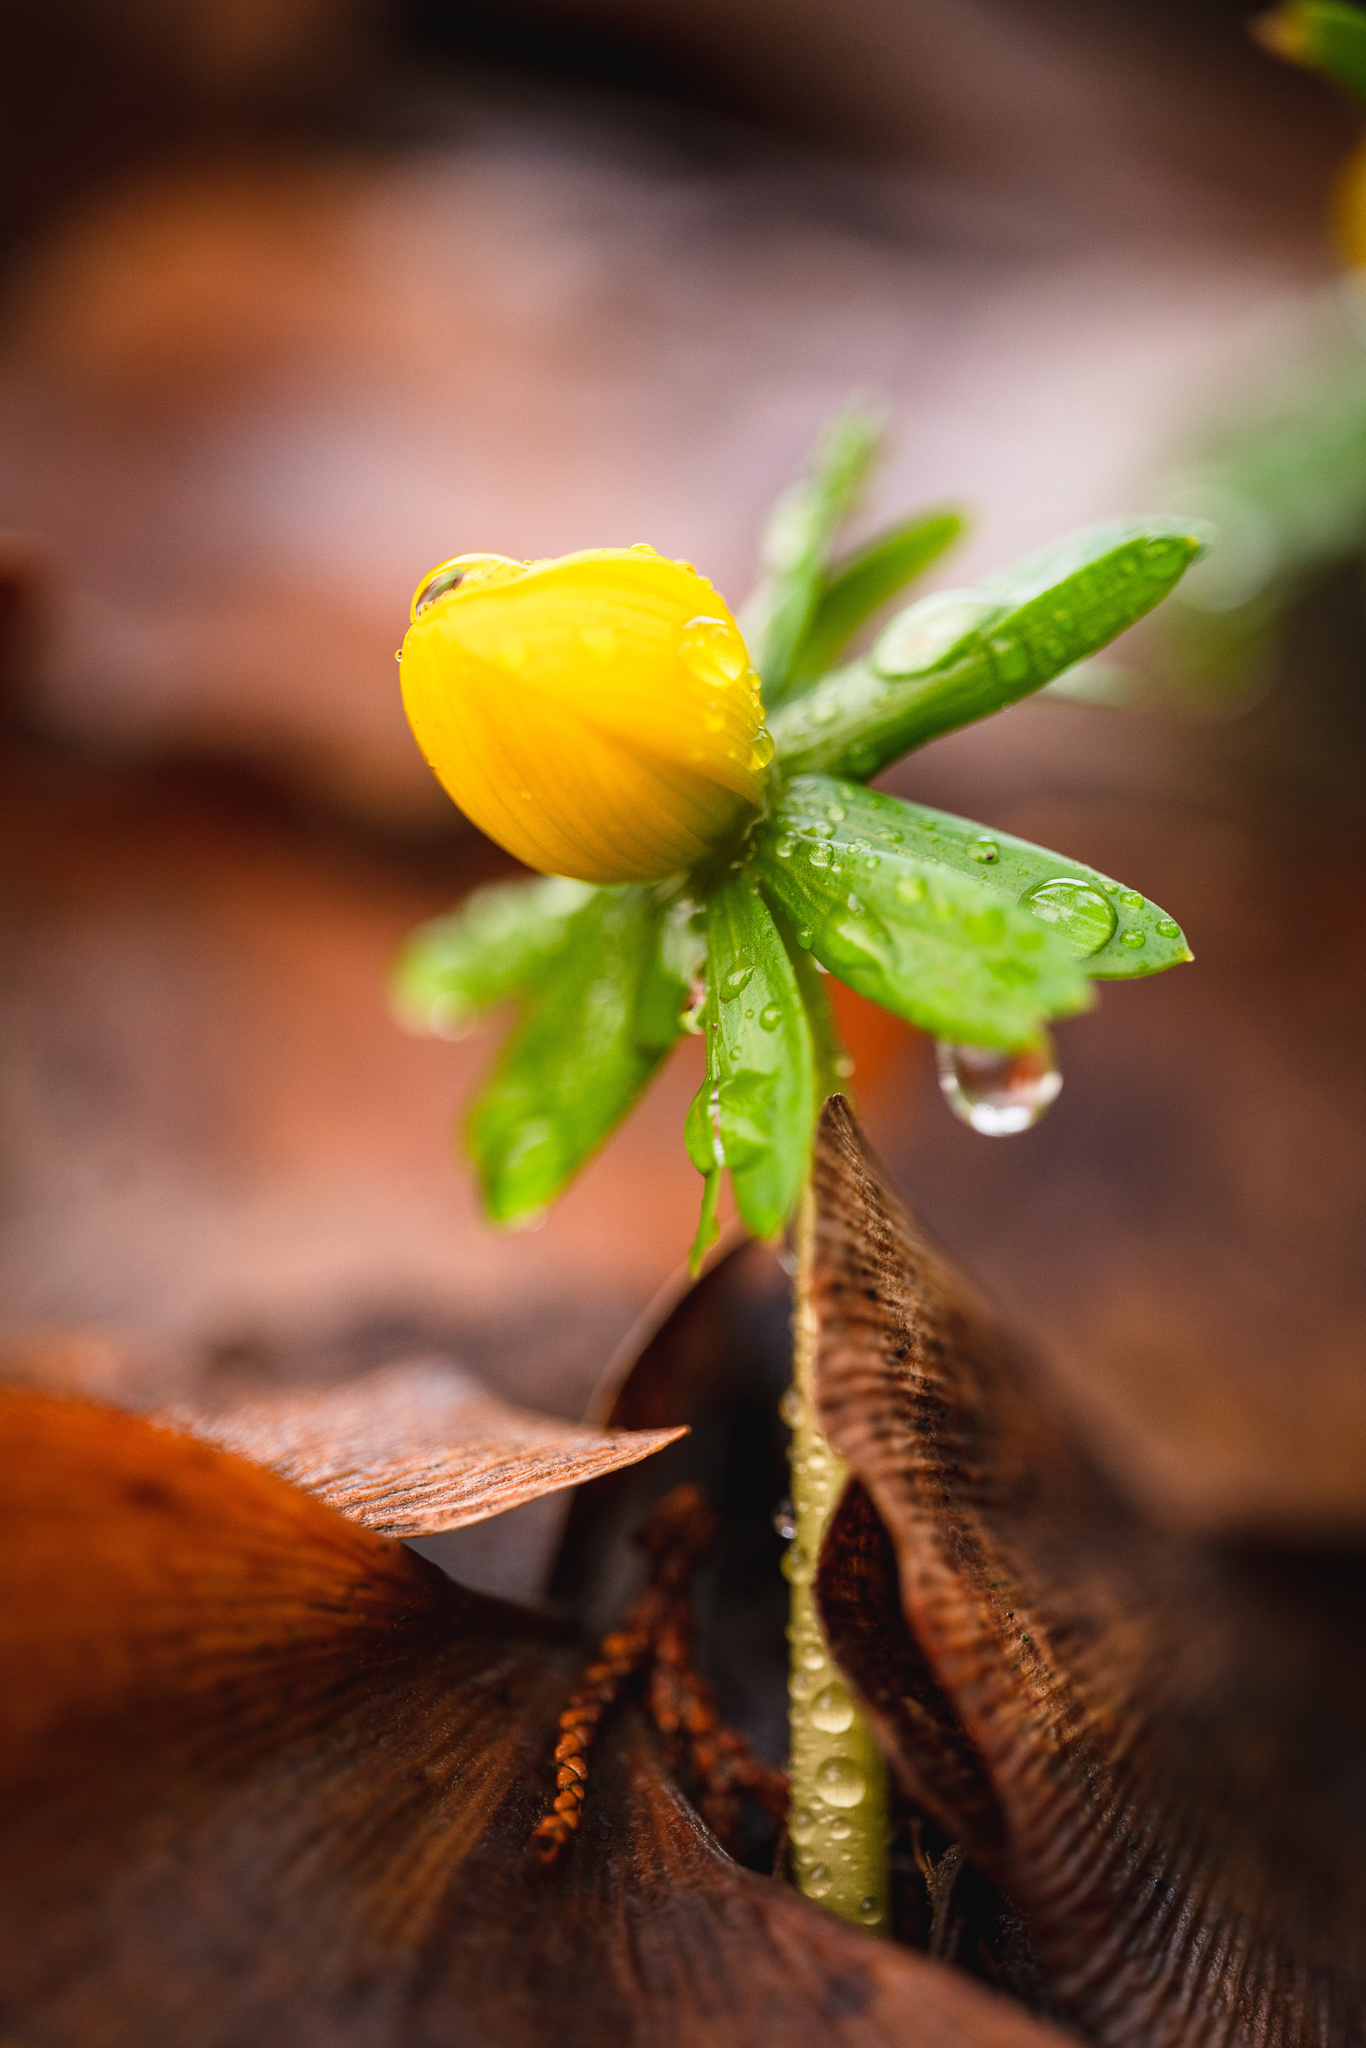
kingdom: Plantae
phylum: Tracheophyta
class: Magnoliopsida
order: Ranunculales
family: Ranunculaceae
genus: Eranthis
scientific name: Eranthis hyemalis
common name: Winter aconite
